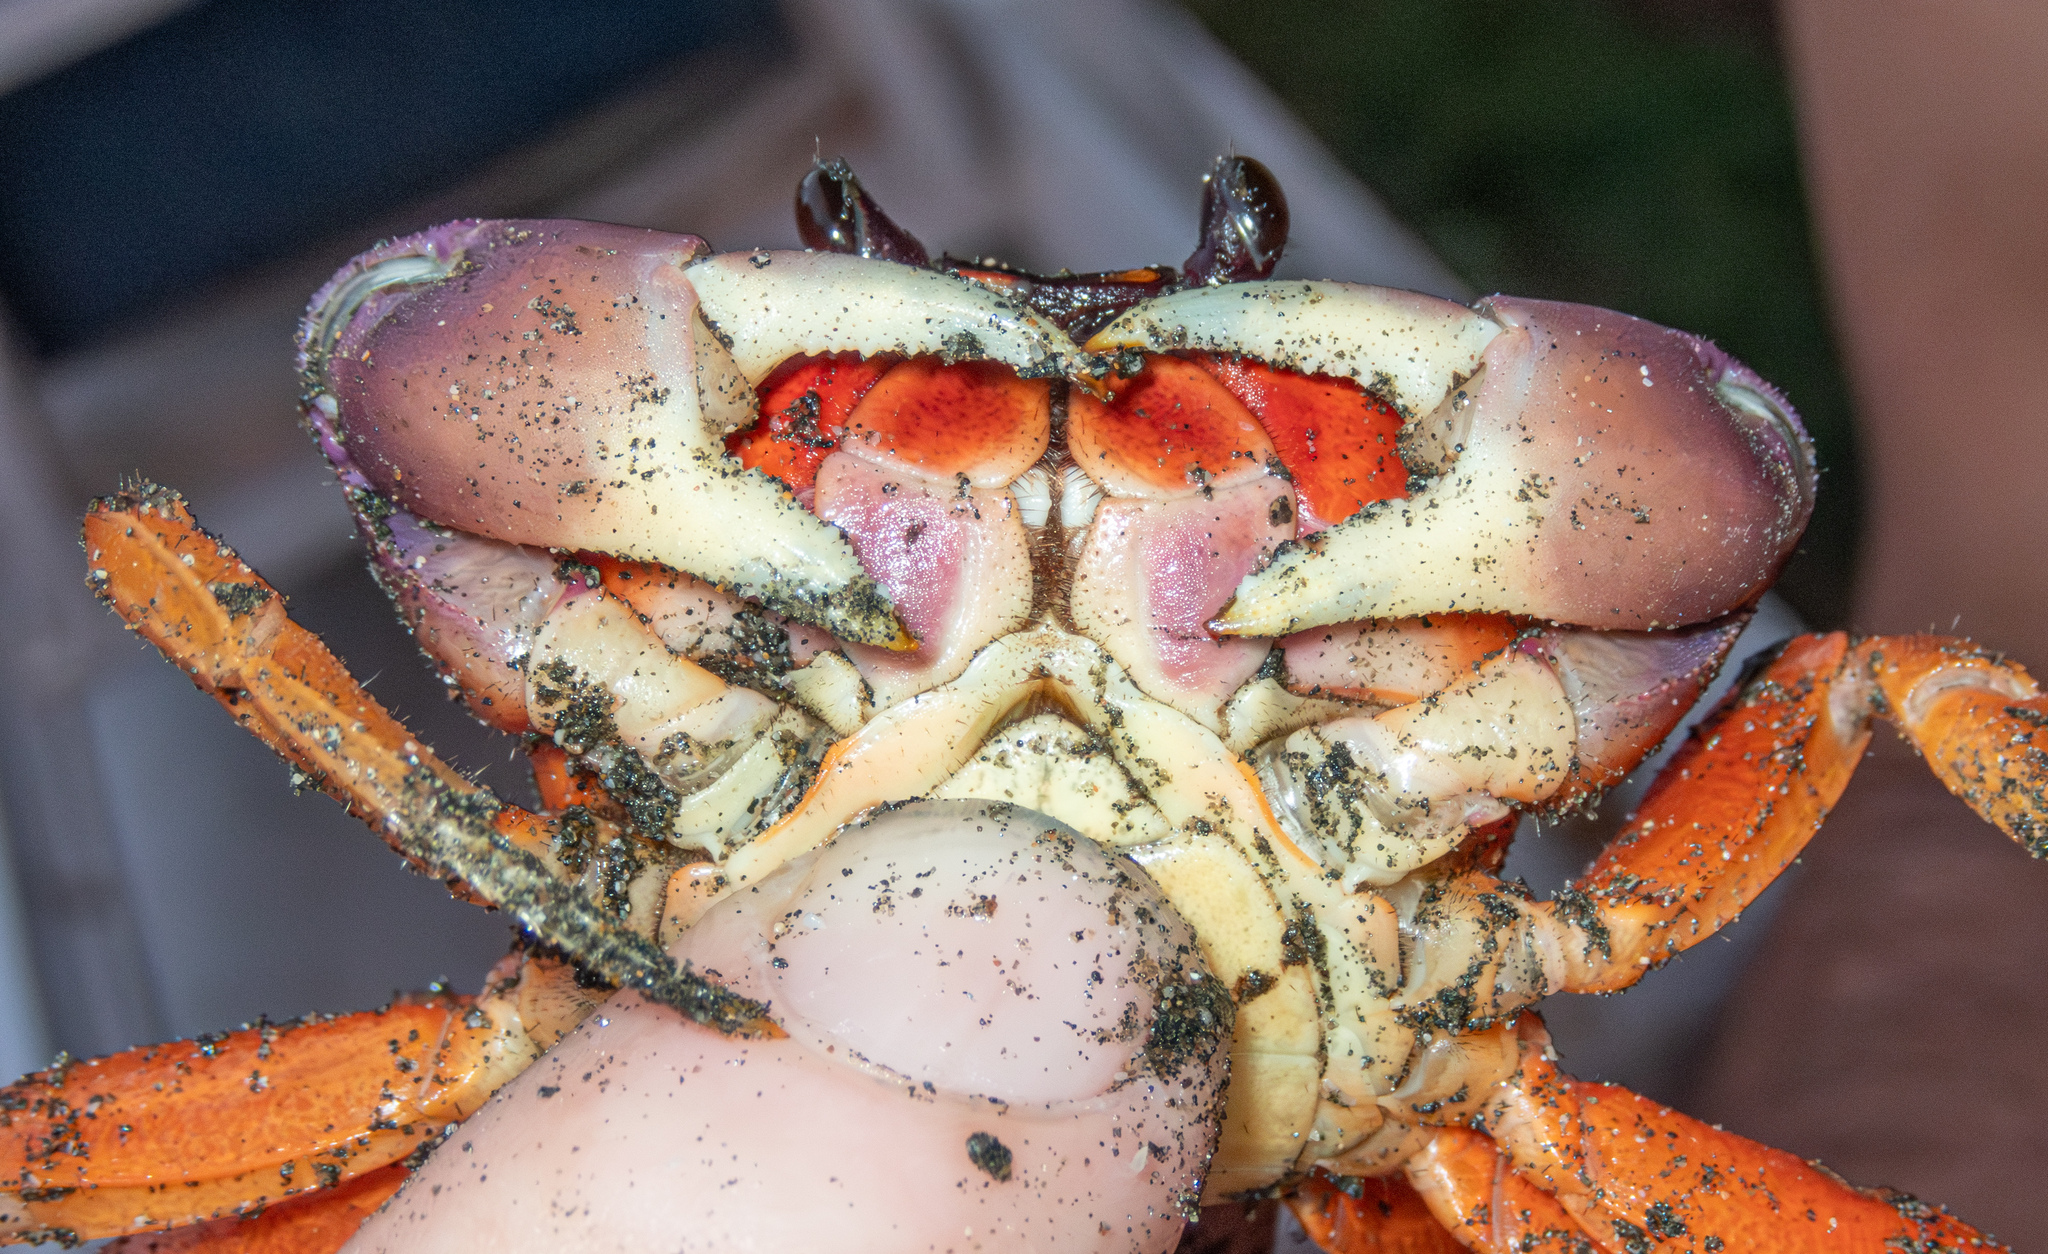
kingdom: Animalia
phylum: Arthropoda
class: Malacostraca
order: Decapoda
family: Gecarcinidae
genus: Gecarcinus
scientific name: Gecarcinus quadratus
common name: Halloween crab
